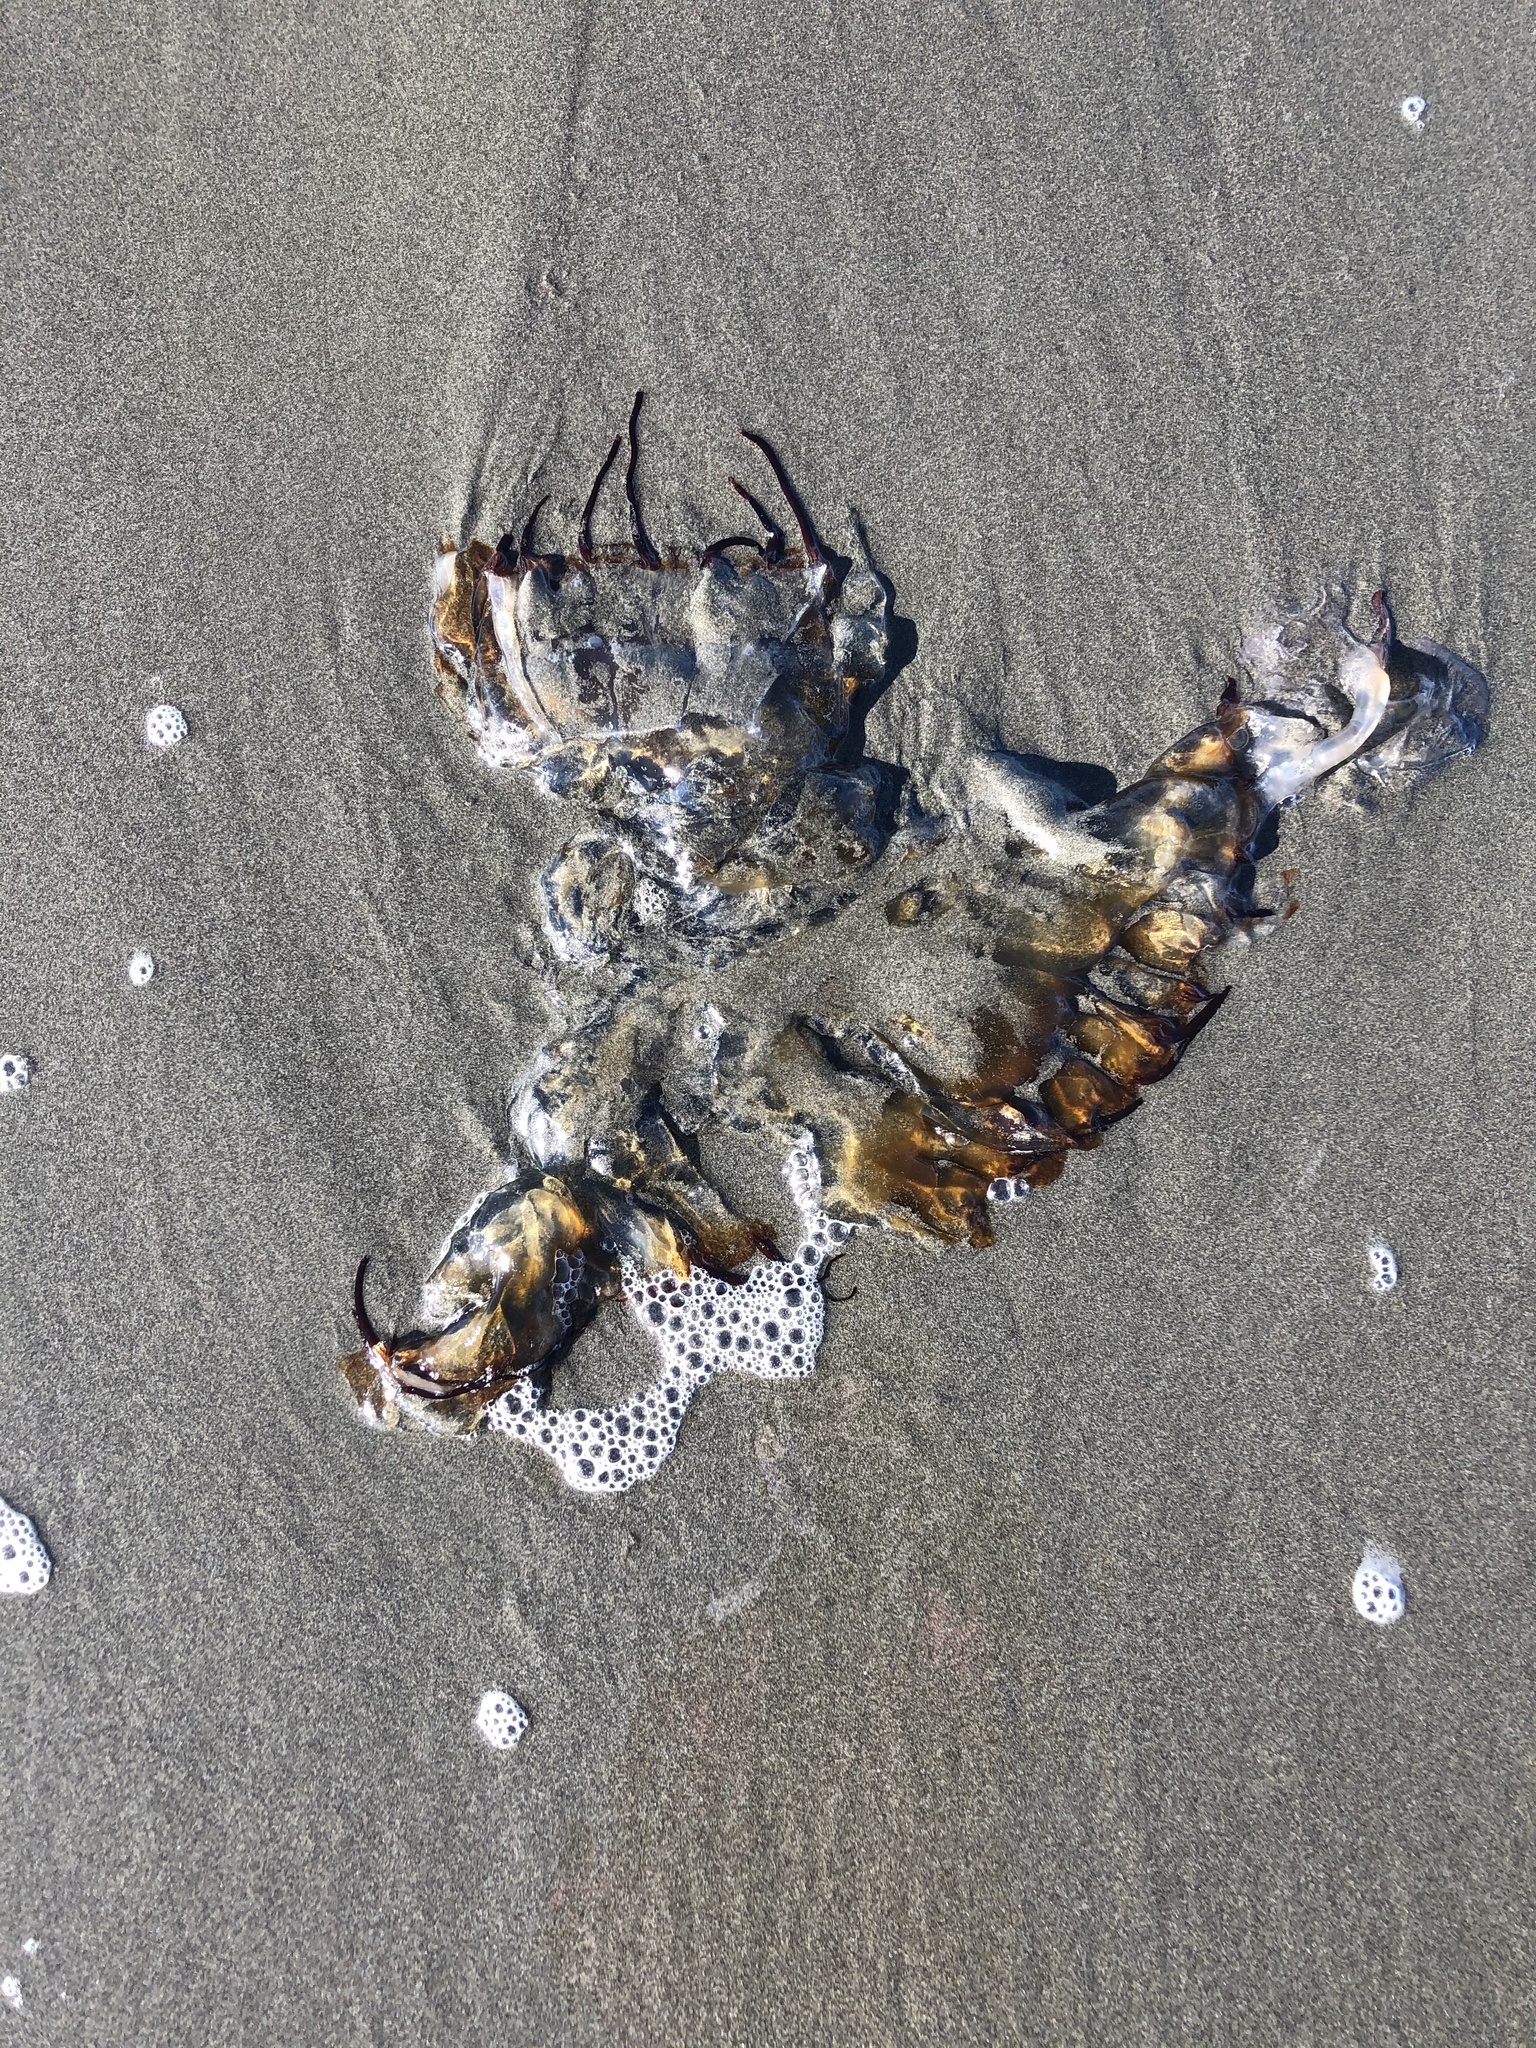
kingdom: Animalia
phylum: Cnidaria
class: Scyphozoa
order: Semaeostomeae
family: Pelagiidae
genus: Chrysaora
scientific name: Chrysaora fuscescens
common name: Sea nettle
